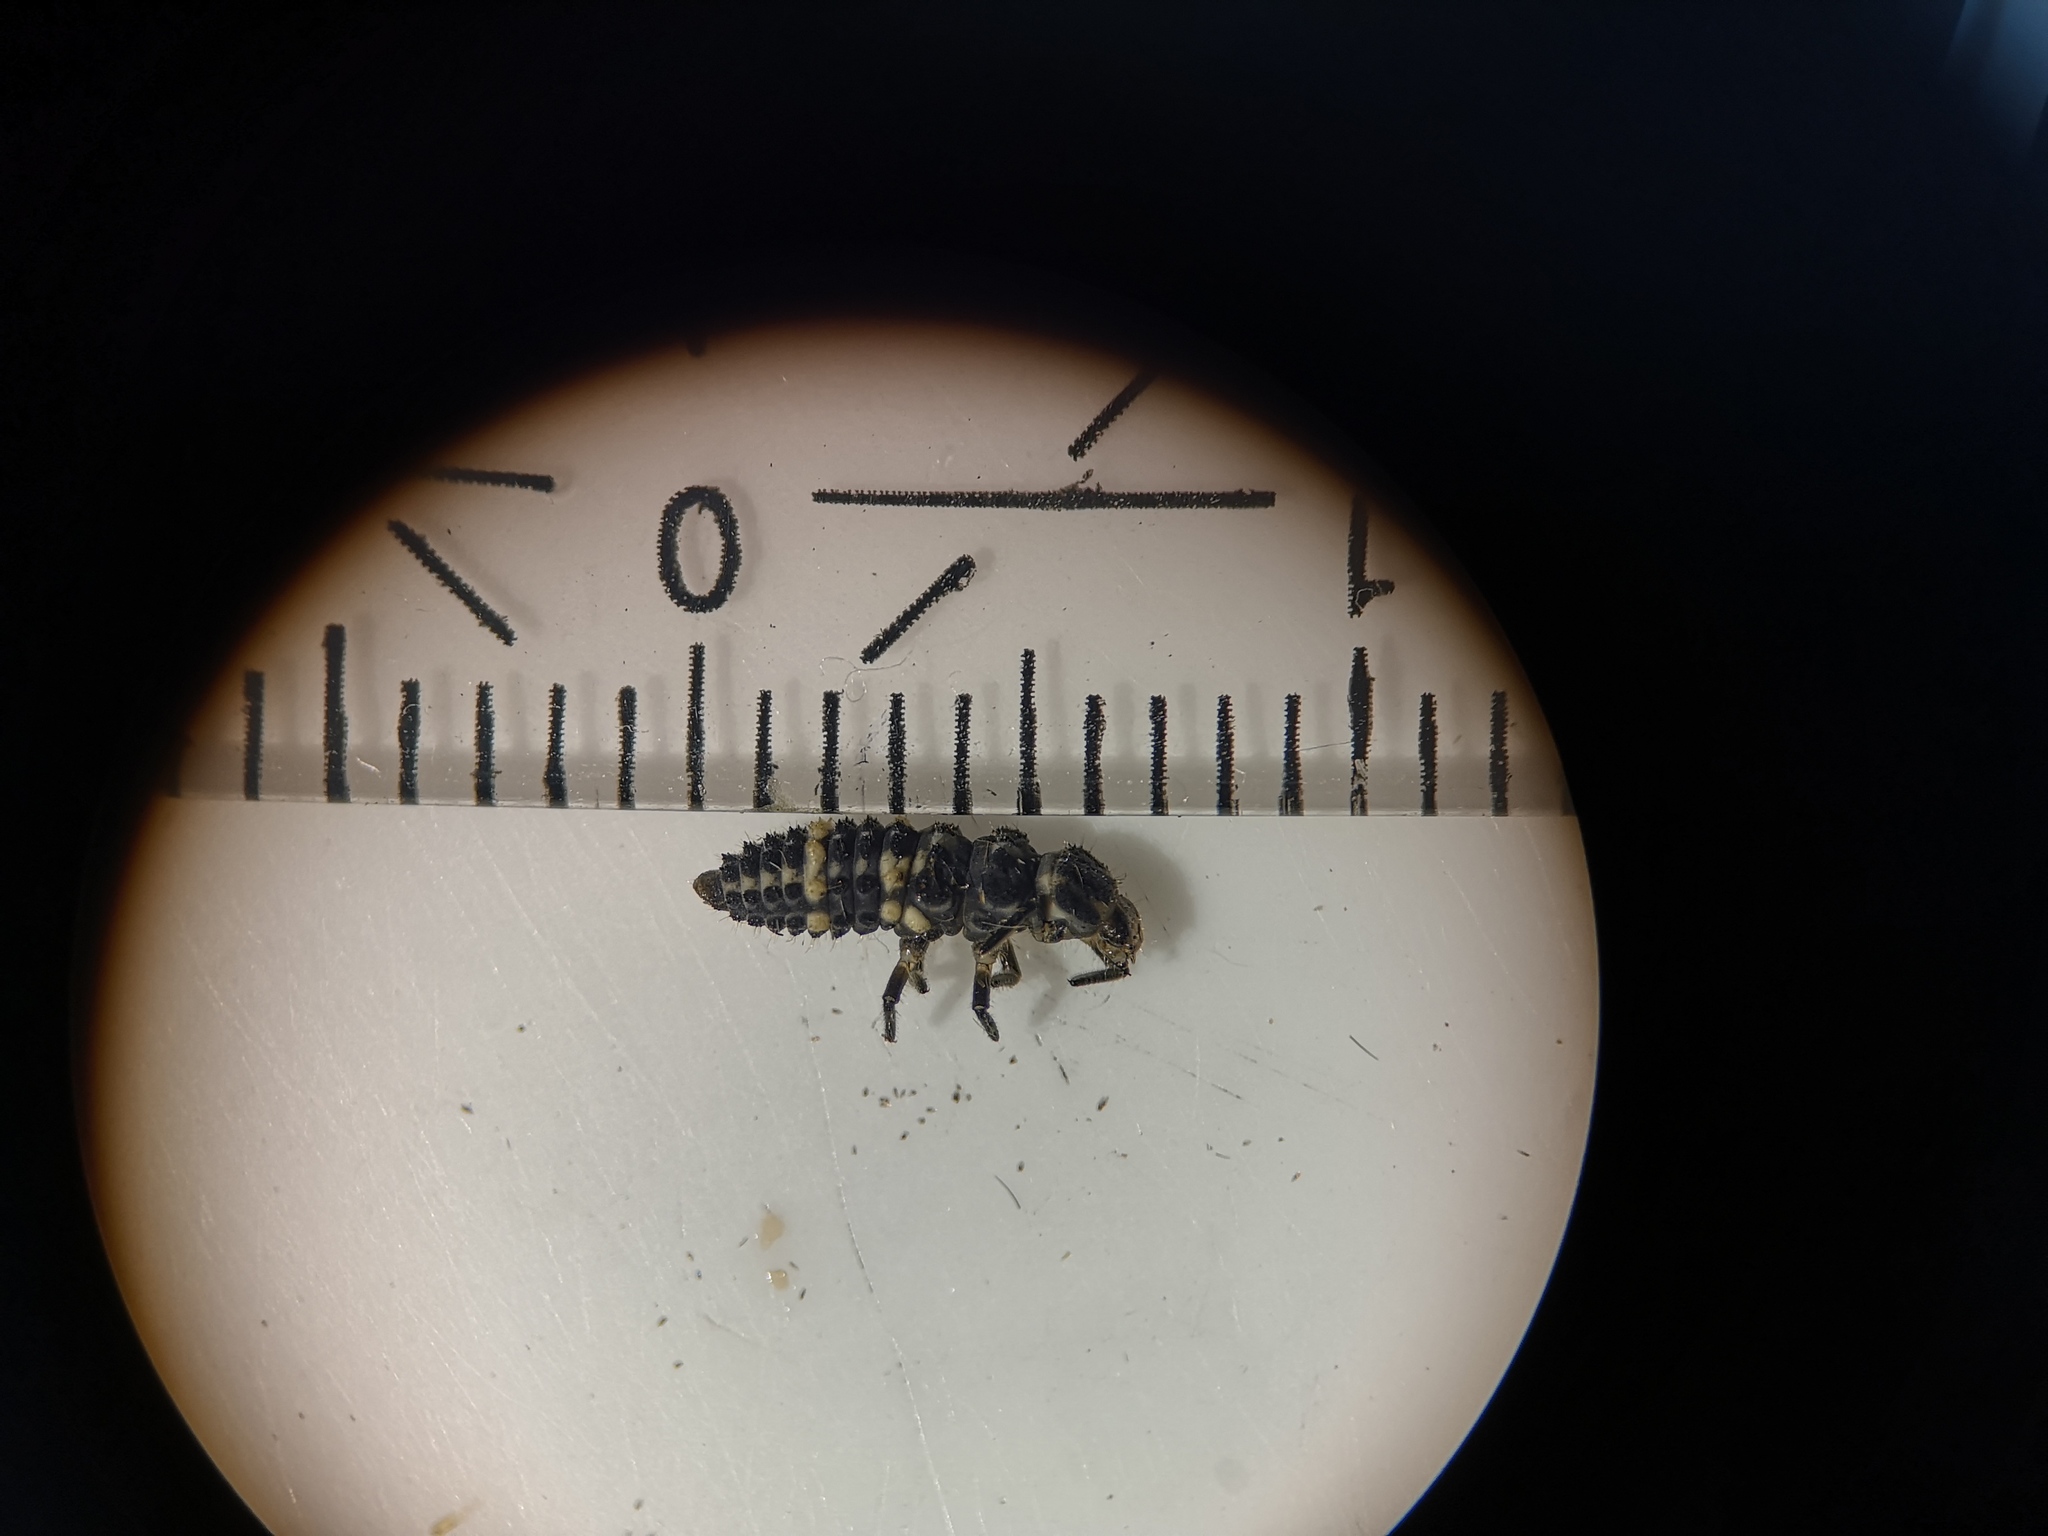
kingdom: Animalia
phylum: Arthropoda
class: Insecta
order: Coleoptera
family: Coccinellidae
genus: Hippodamia
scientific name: Hippodamia tredecimpunctata
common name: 13-spot ladybird
